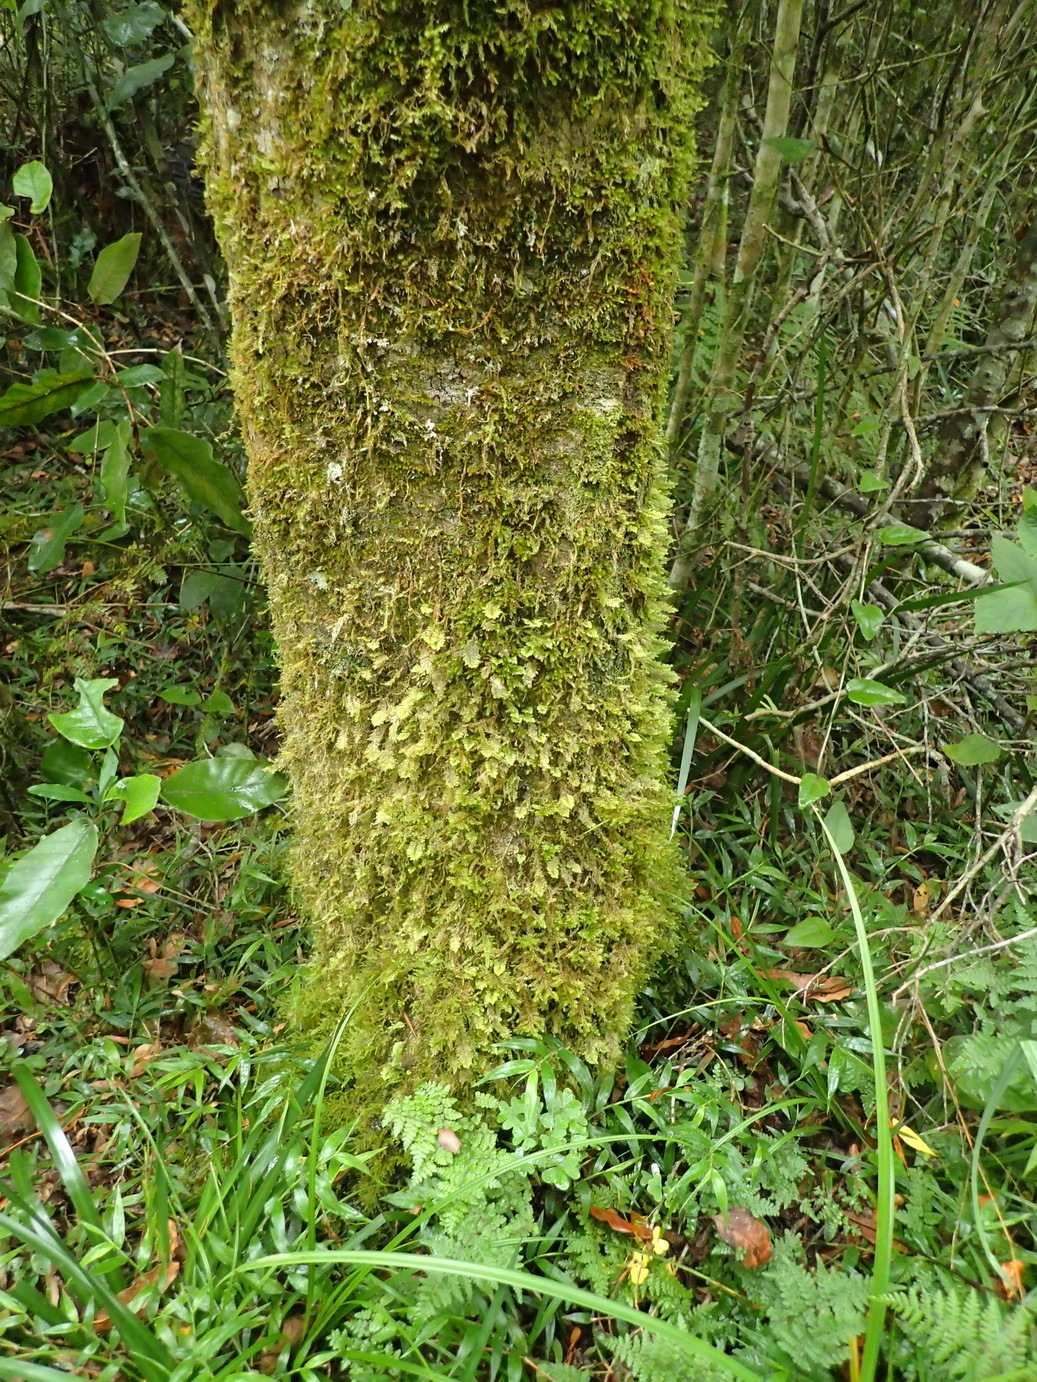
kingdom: Plantae
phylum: Bryophyta
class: Bryopsida
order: Hypopterygiales
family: Hypopterygiaceae
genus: Lopidium
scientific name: Lopidium struthiopteris
